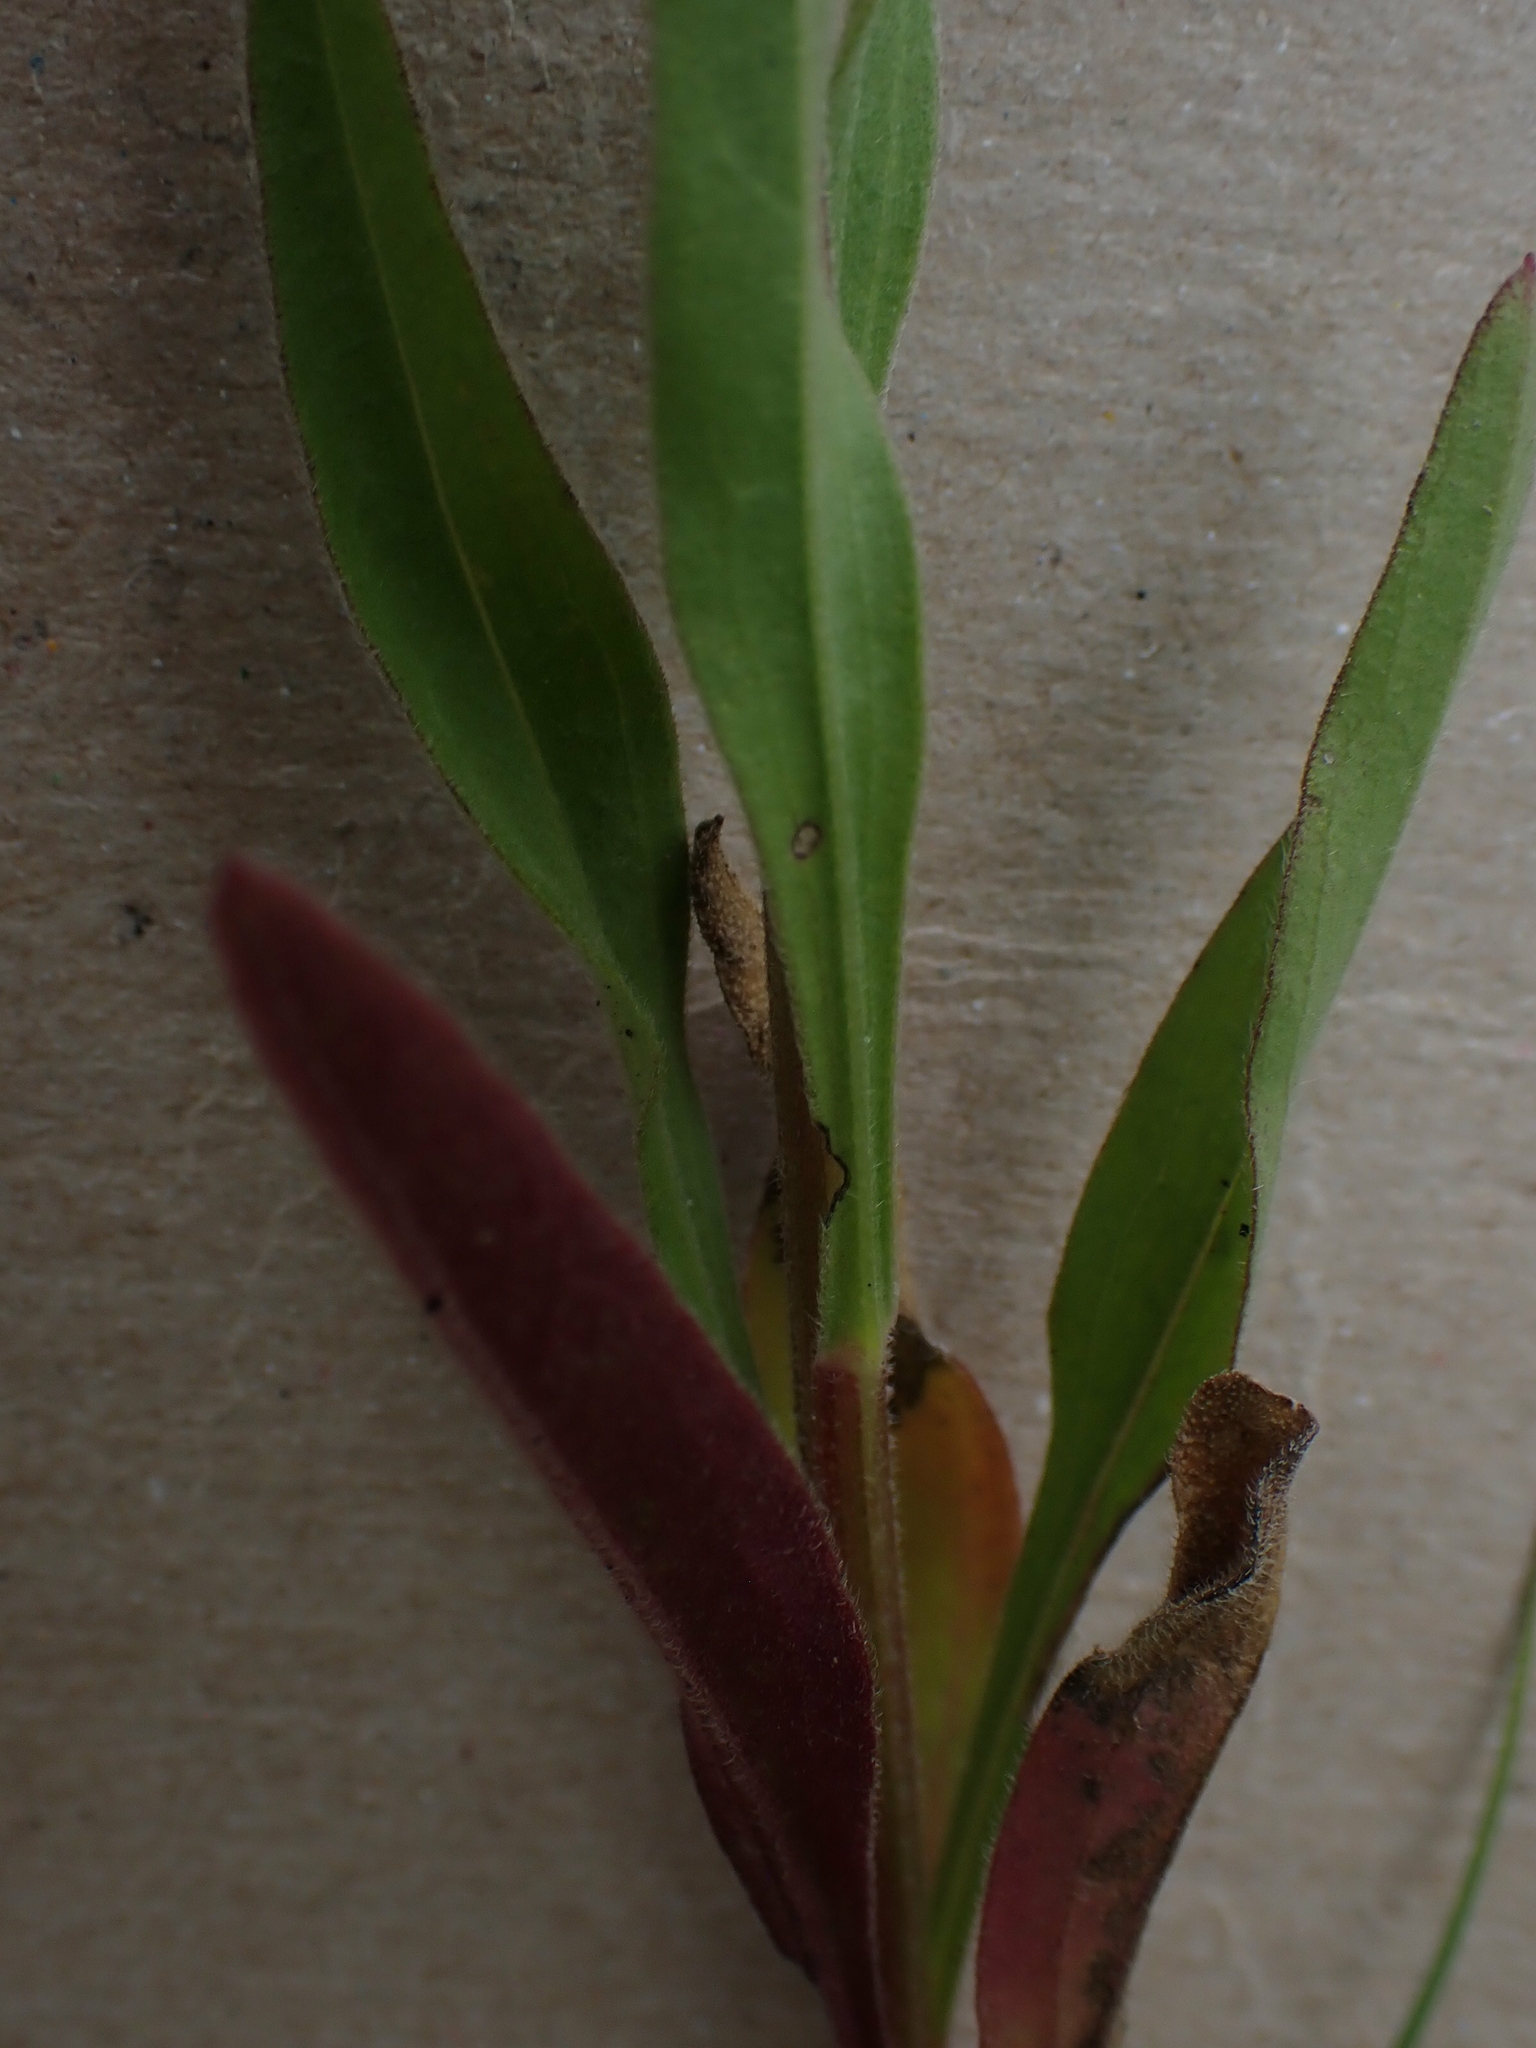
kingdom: Plantae
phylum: Tracheophyta
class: Magnoliopsida
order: Asterales
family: Asteraceae
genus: Erigeron
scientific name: Erigeron strigosus
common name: Common eastern fleabane
